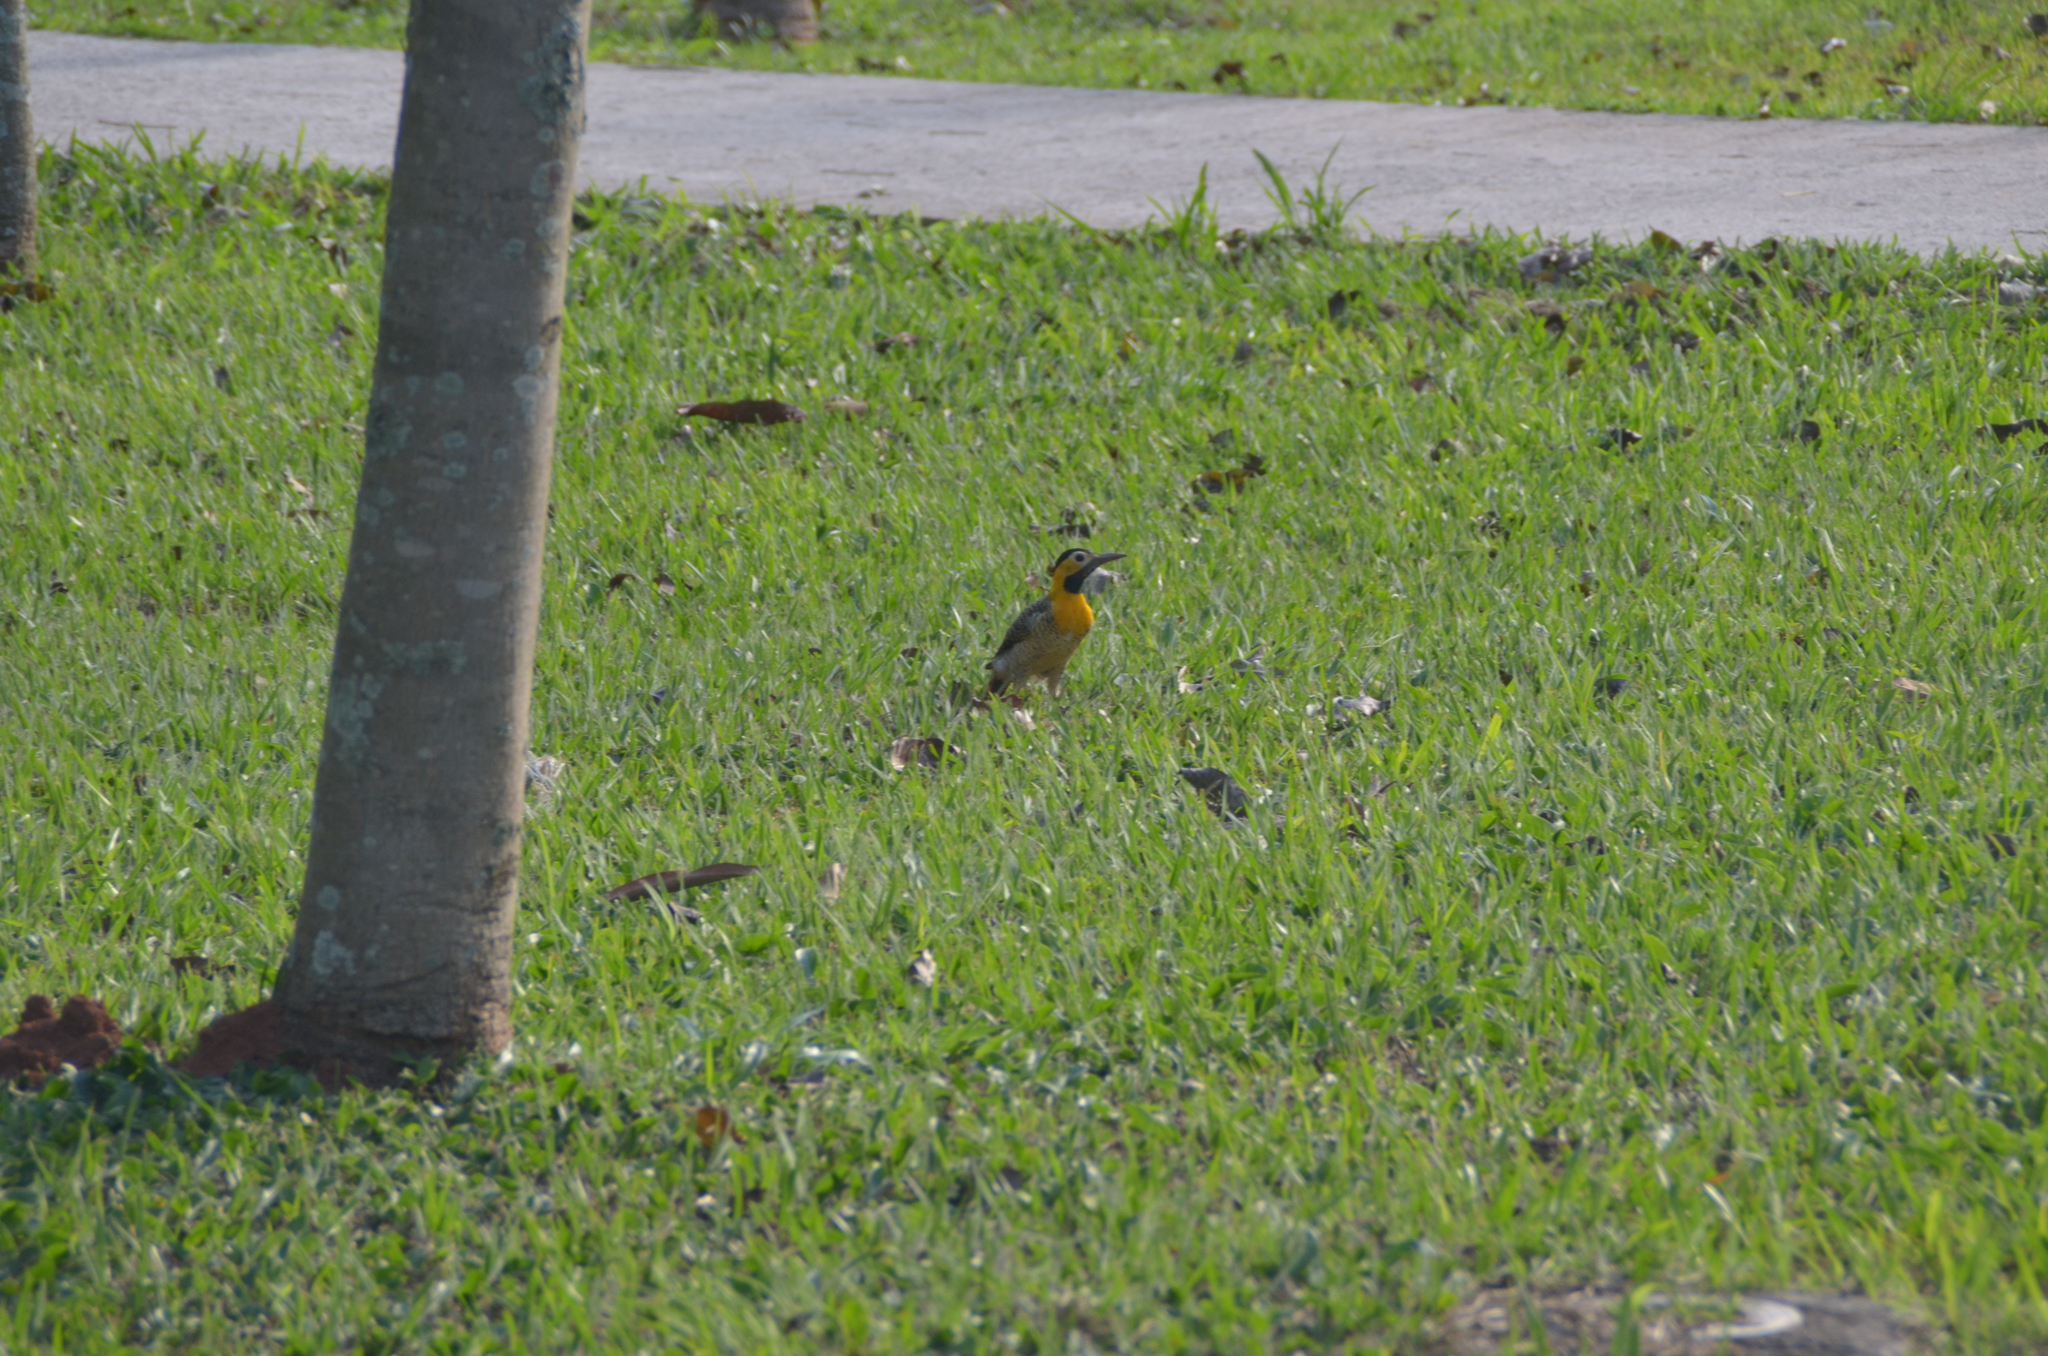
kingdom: Animalia
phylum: Chordata
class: Aves
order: Piciformes
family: Picidae
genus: Colaptes
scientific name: Colaptes campestris
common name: Campo flicker
